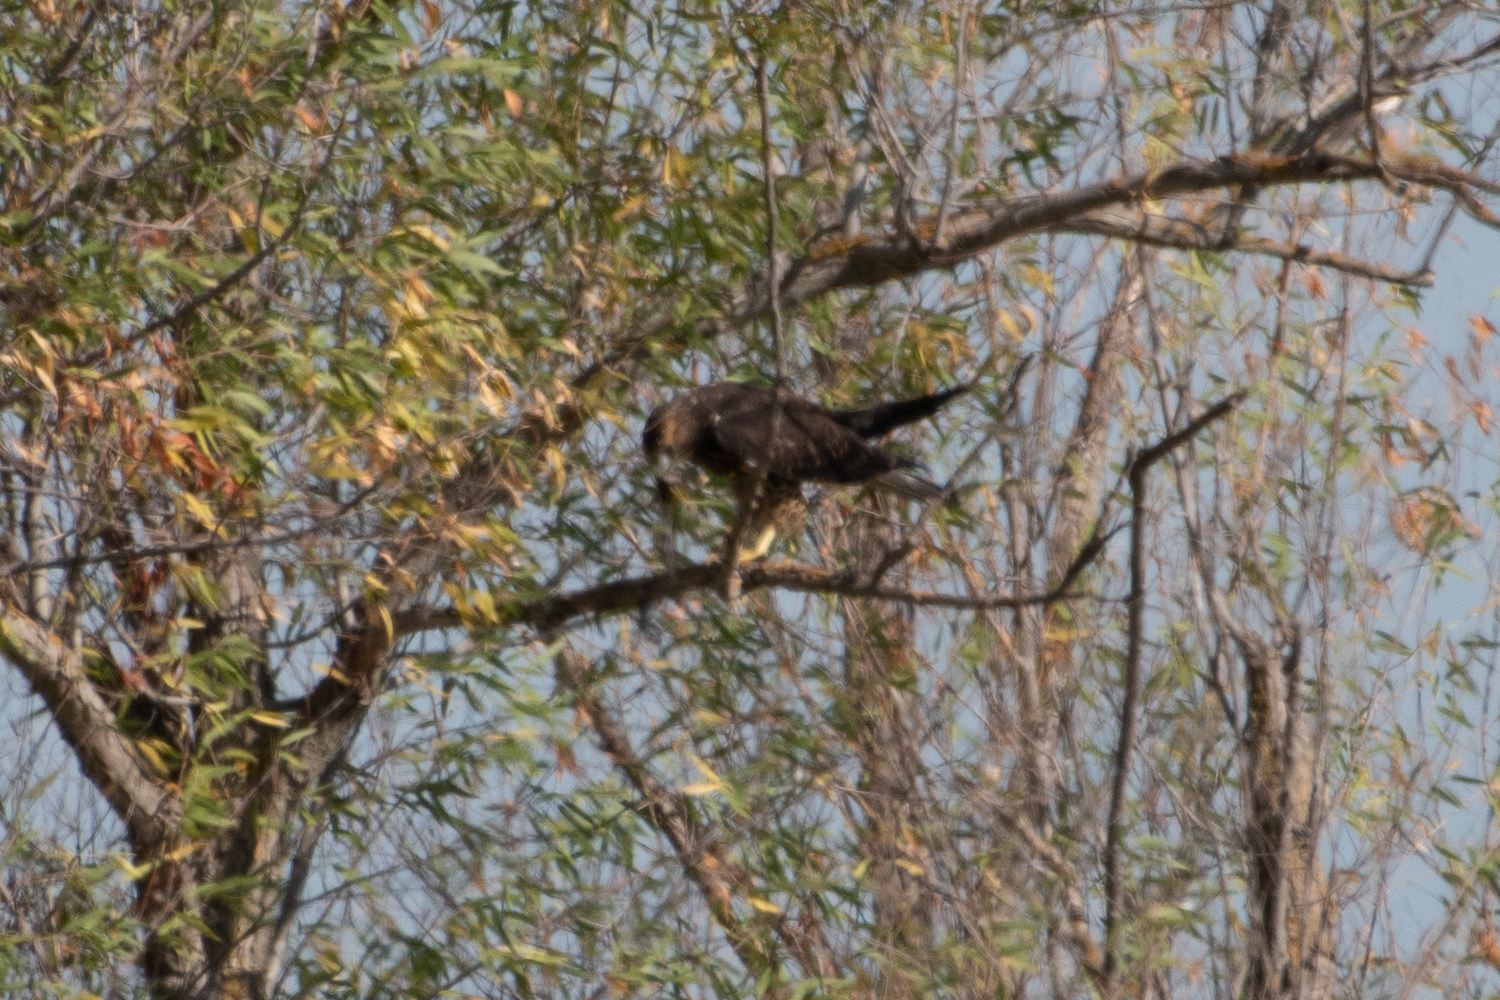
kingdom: Animalia
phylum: Chordata
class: Aves
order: Accipitriformes
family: Accipitridae
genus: Buteo
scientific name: Buteo swainsoni
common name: Swainson's hawk
